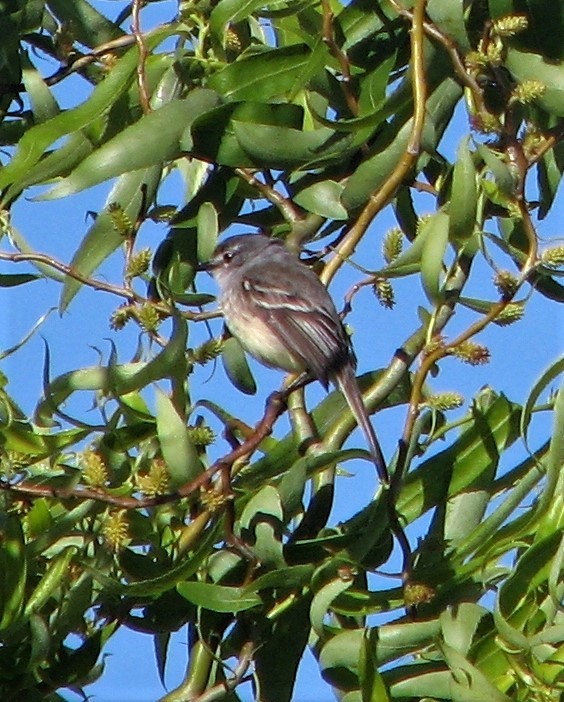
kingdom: Animalia
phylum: Chordata
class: Aves
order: Passeriformes
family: Tyrannidae
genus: Serpophaga
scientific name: Serpophaga subcristata
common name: White-crested tyrannulet
